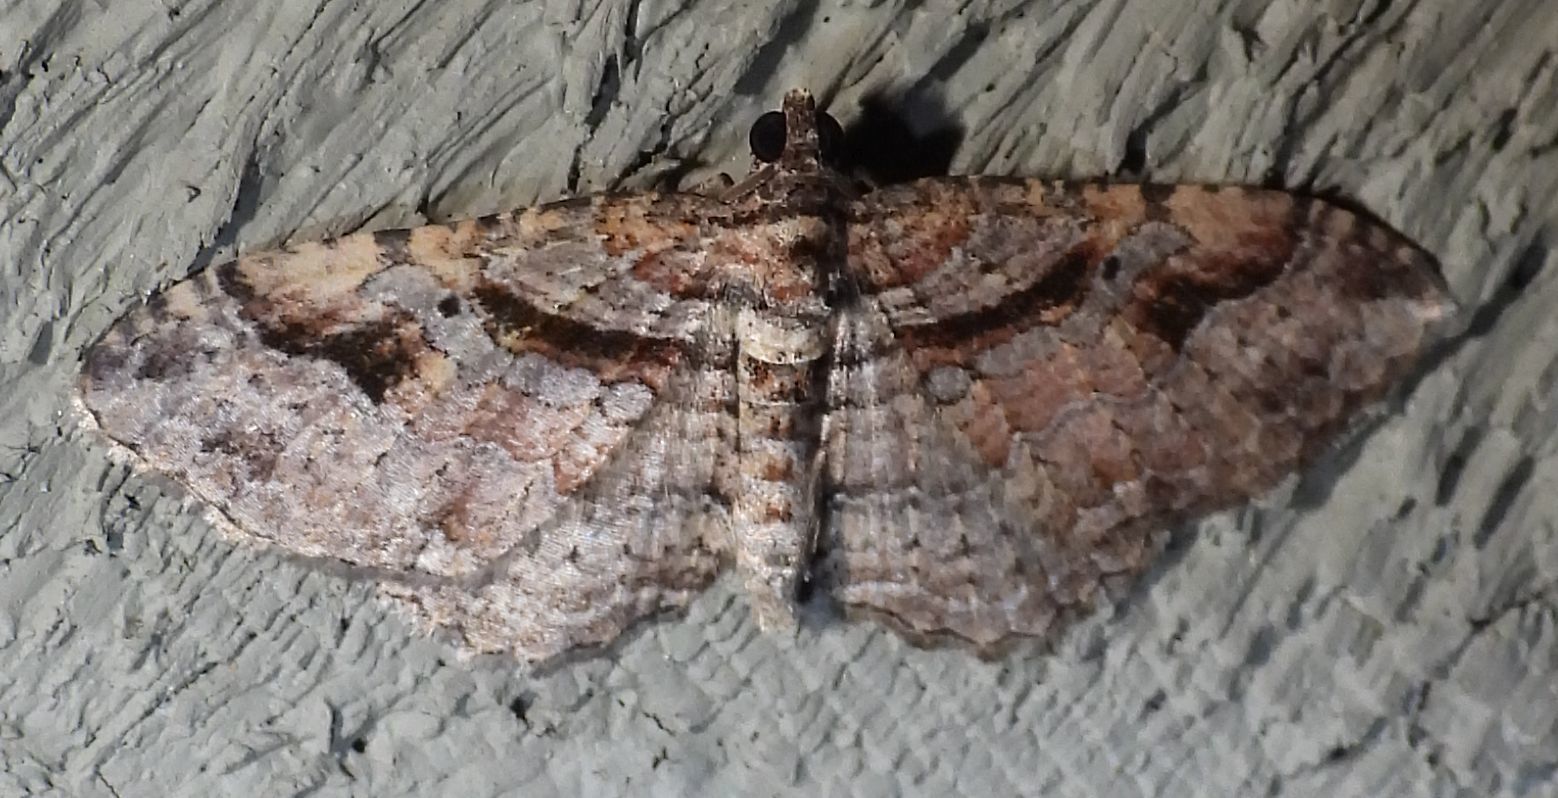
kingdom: Animalia
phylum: Arthropoda
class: Insecta
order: Lepidoptera
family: Geometridae
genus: Costaconvexa
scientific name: Costaconvexa centrostrigaria
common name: Bent-line carpet
